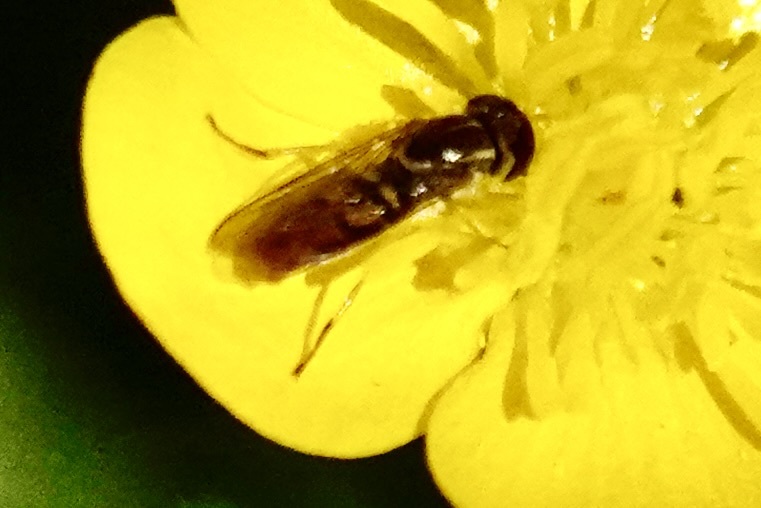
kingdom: Animalia
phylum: Arthropoda
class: Insecta
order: Diptera
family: Syrphidae
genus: Toxomerus
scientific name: Toxomerus marginatus
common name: Syrphid fly
